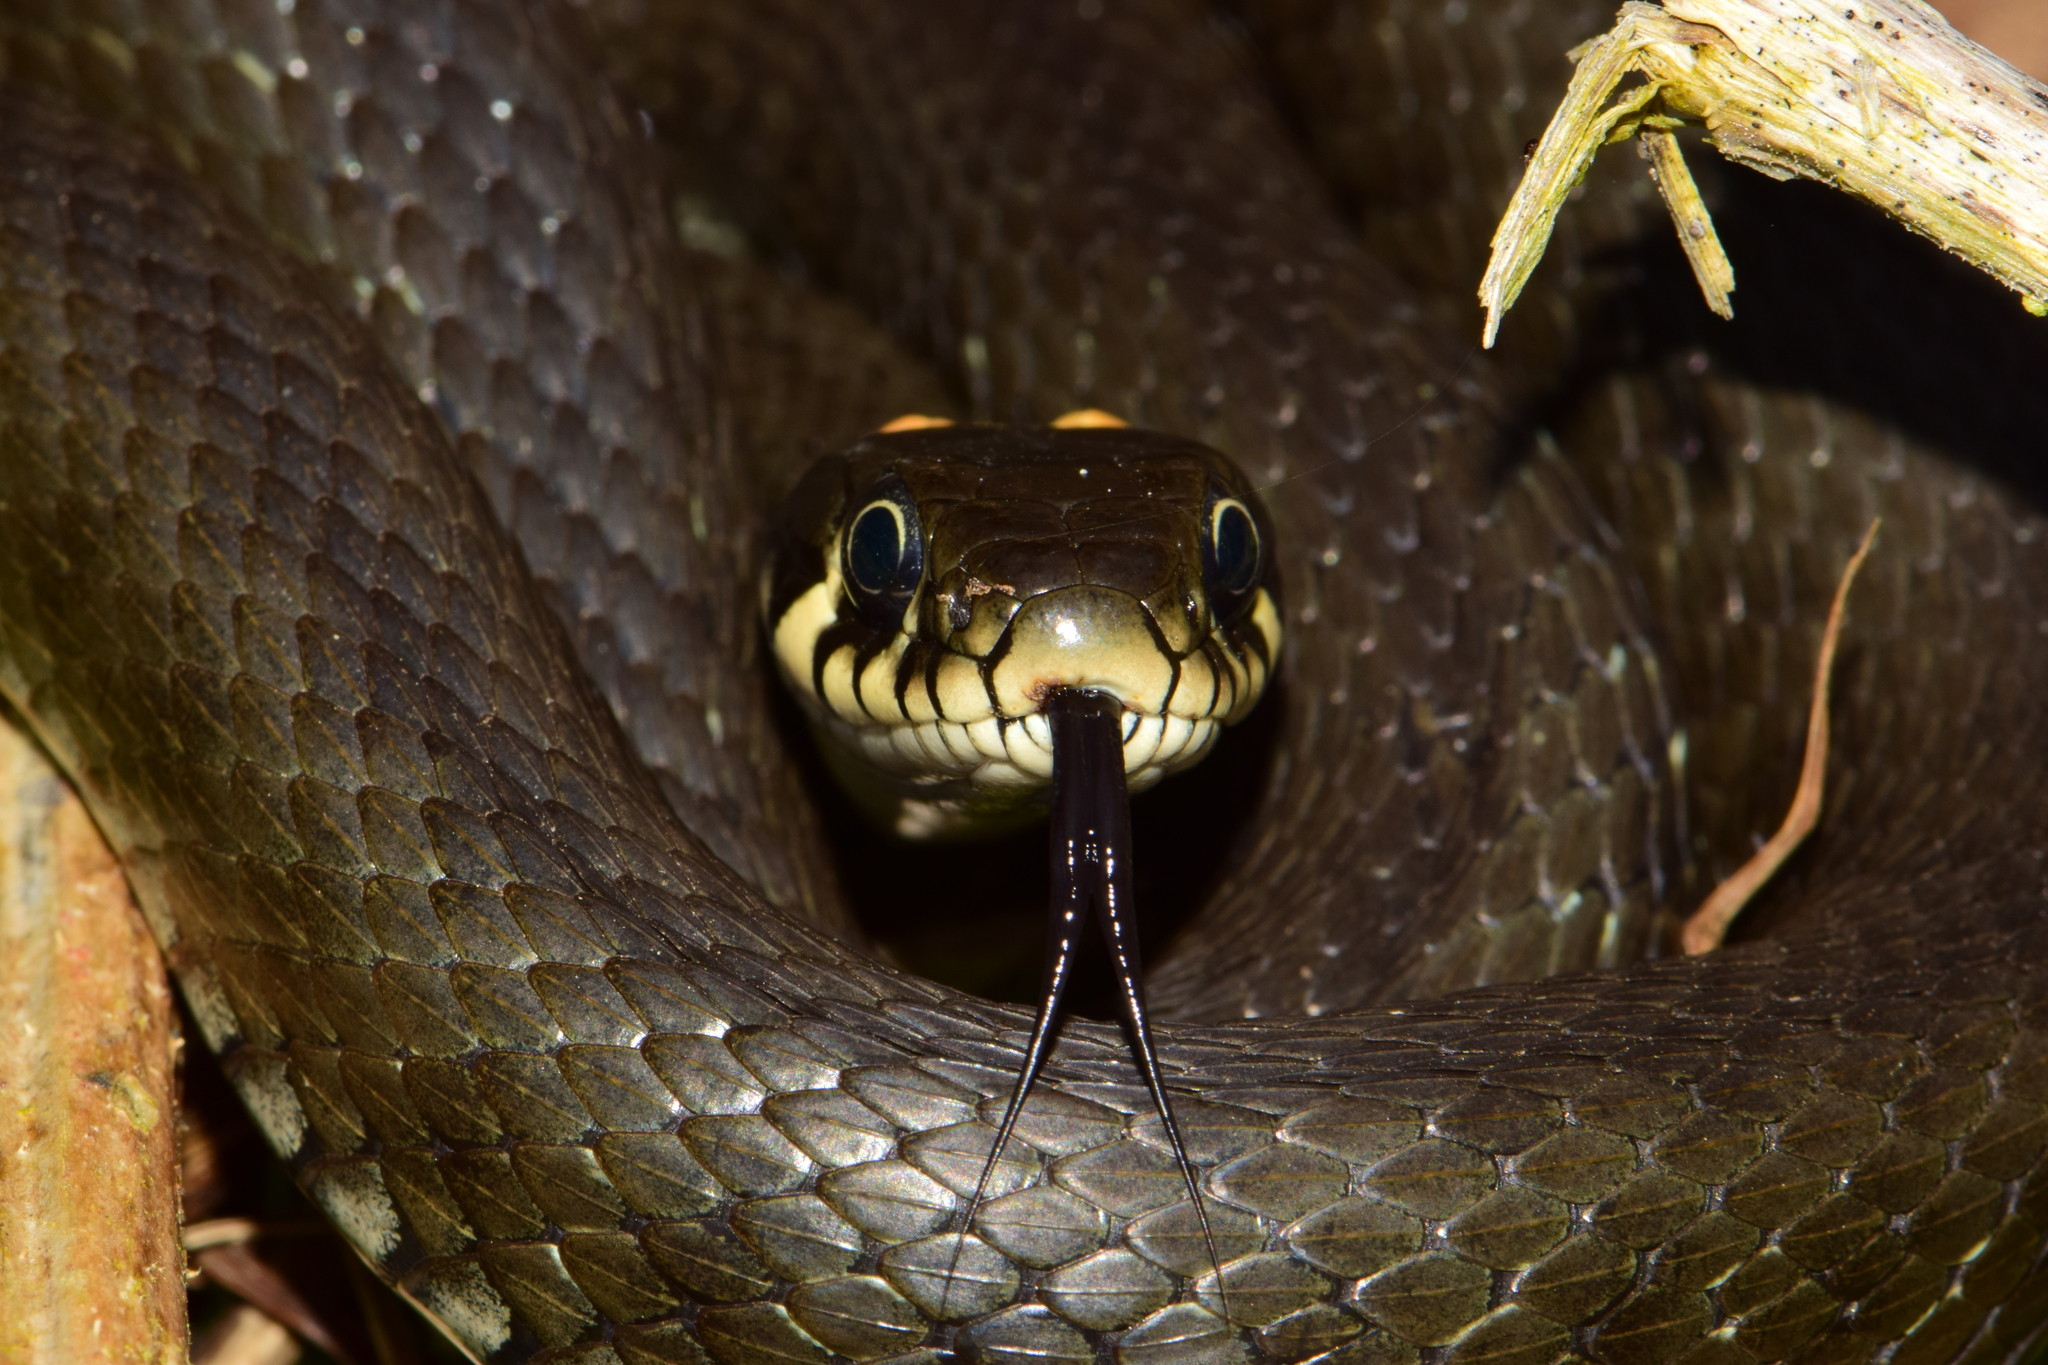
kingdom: Animalia
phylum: Chordata
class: Squamata
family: Colubridae
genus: Natrix
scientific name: Natrix natrix
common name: Grass snake
